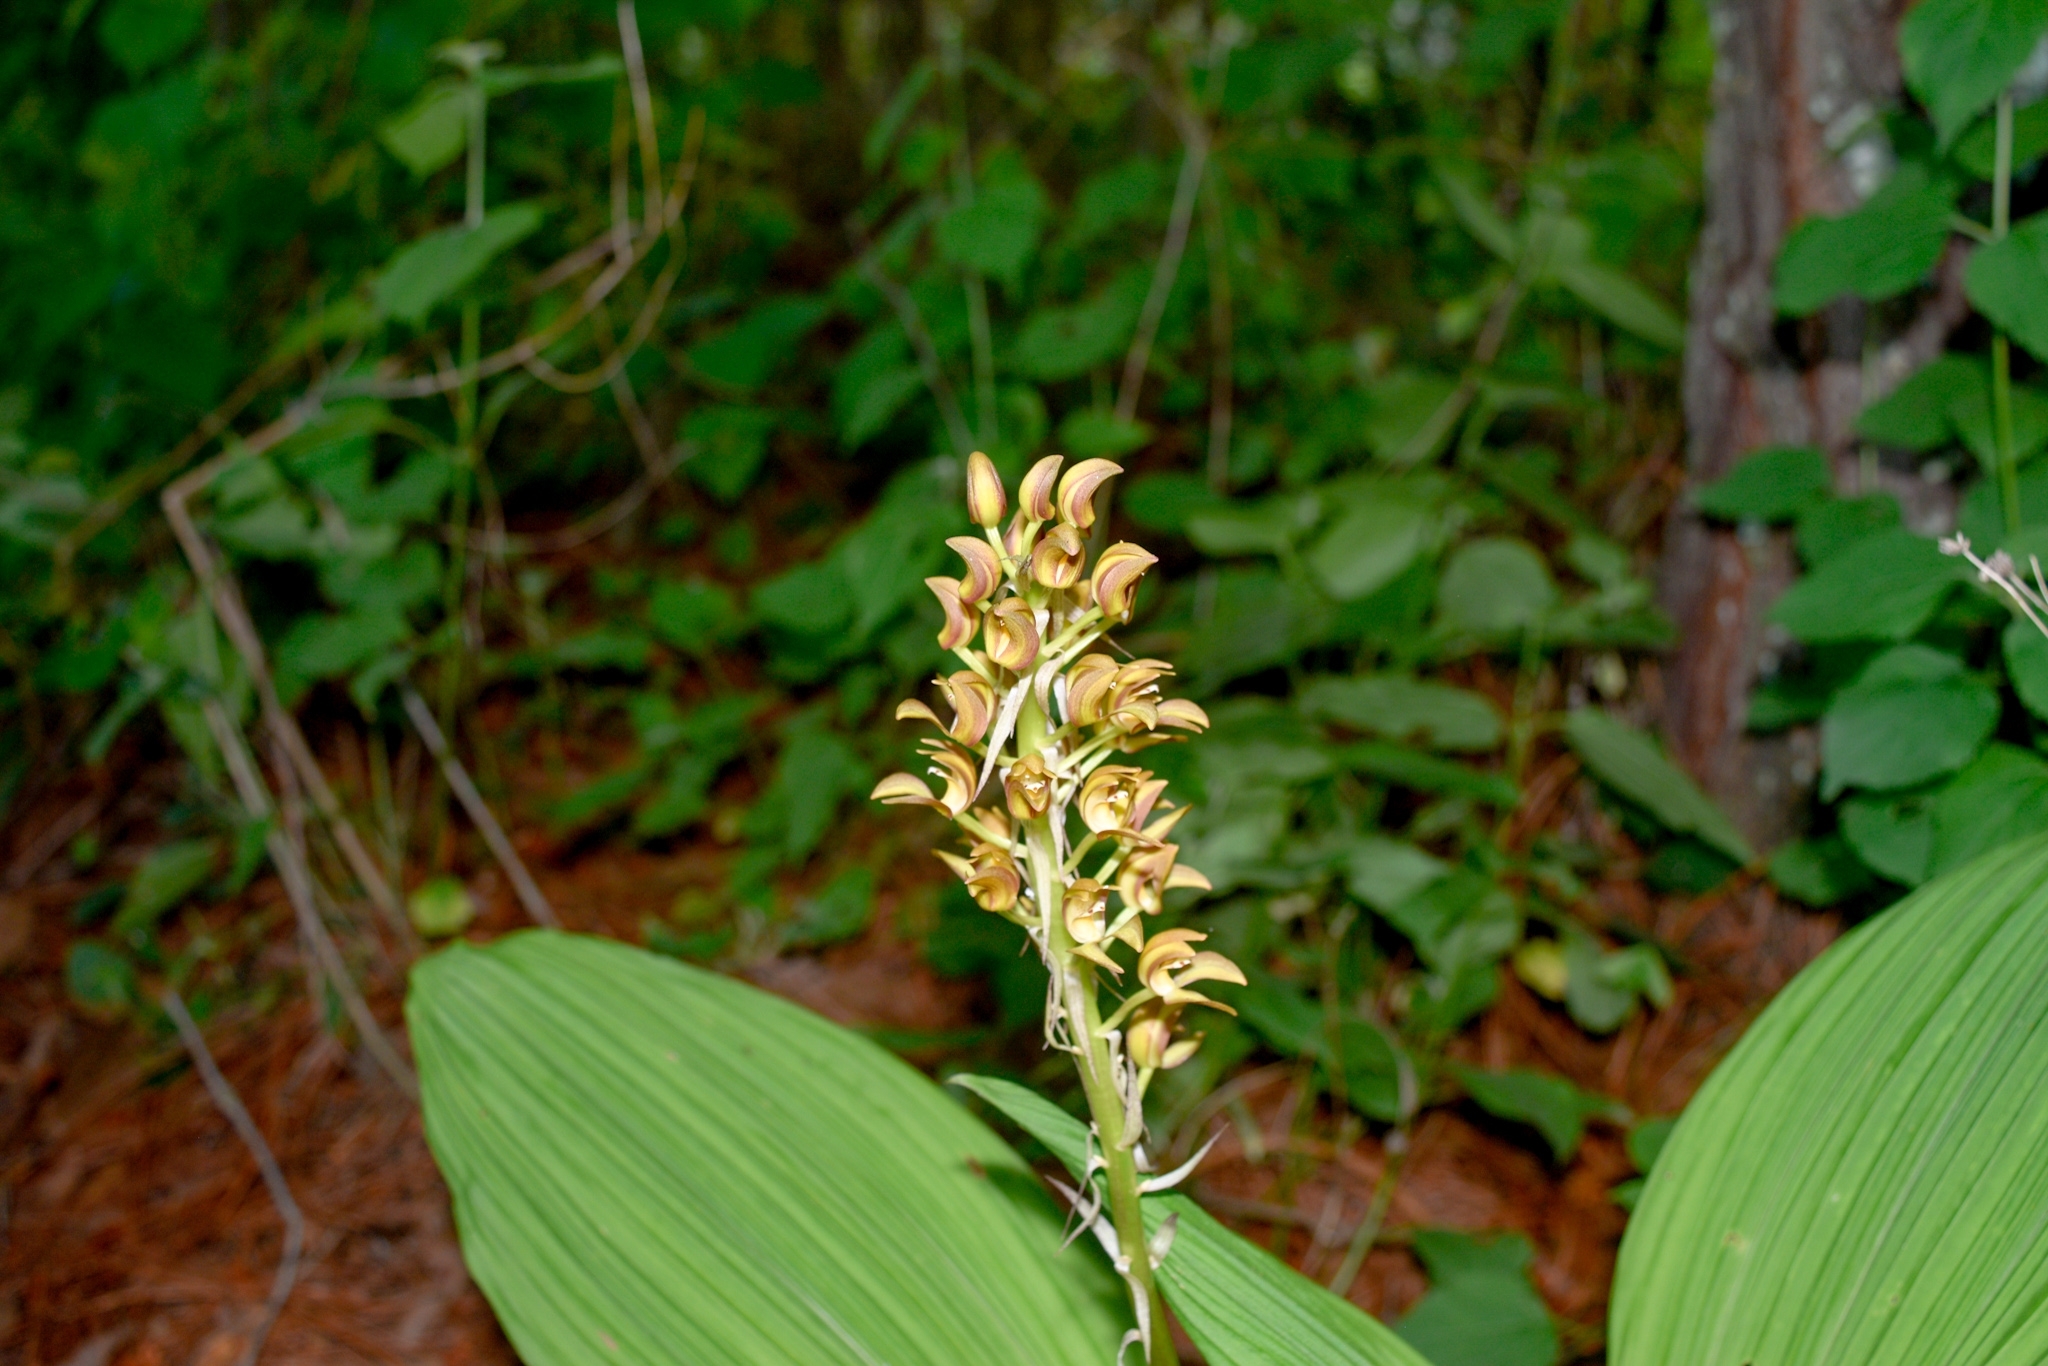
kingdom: Plantae
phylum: Tracheophyta
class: Liliopsida
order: Asparagales
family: Orchidaceae
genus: Govenia
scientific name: Govenia dressleriana
